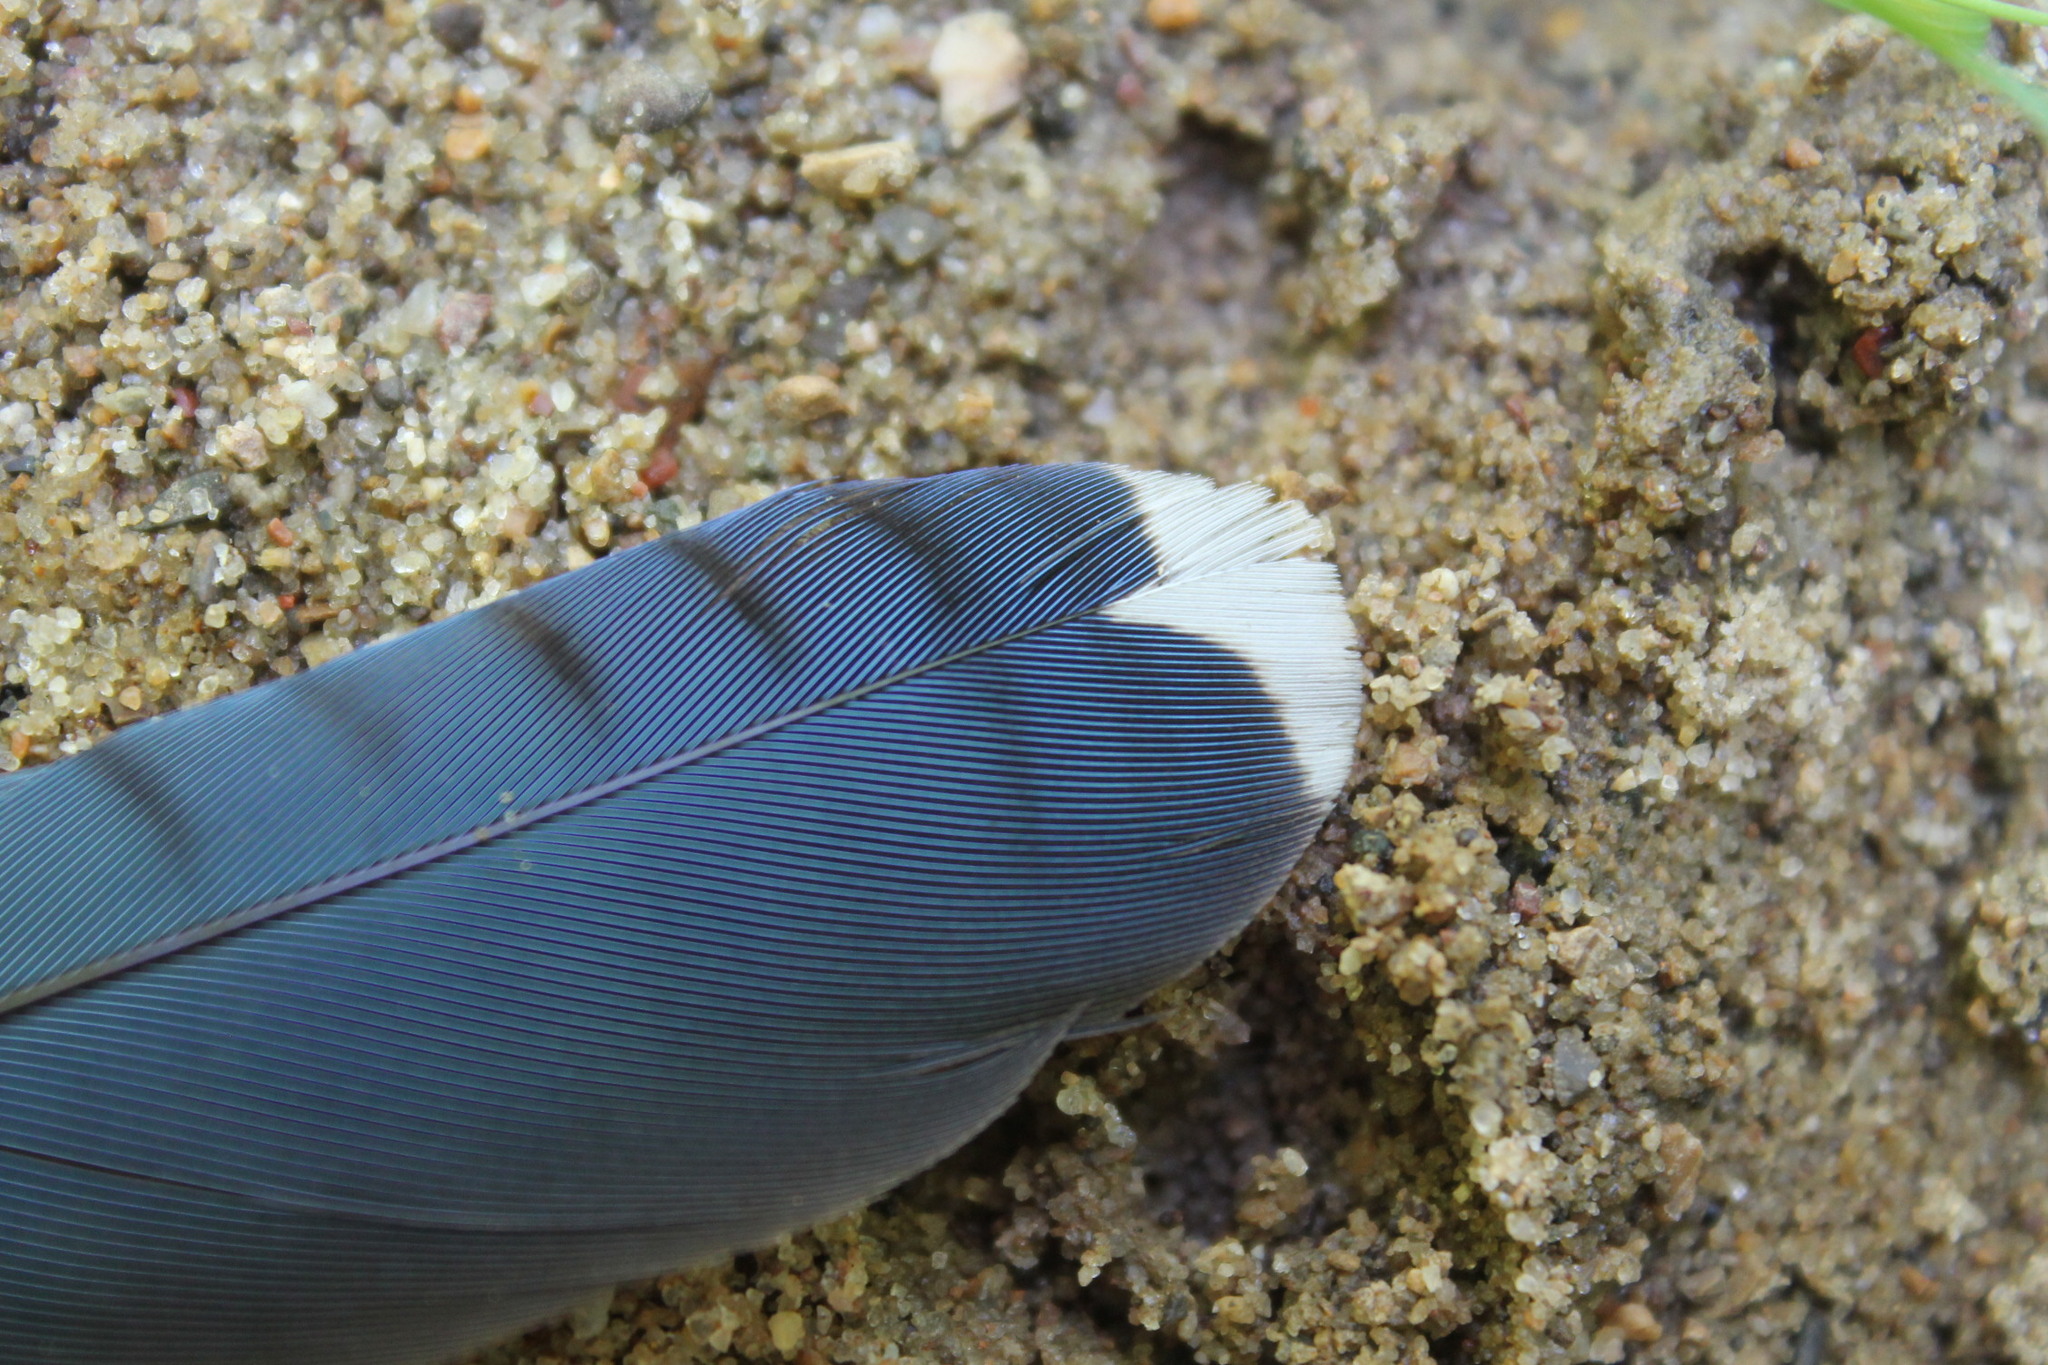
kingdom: Animalia
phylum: Chordata
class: Aves
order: Passeriformes
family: Corvidae
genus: Cyanocitta
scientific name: Cyanocitta cristata
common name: Blue jay
